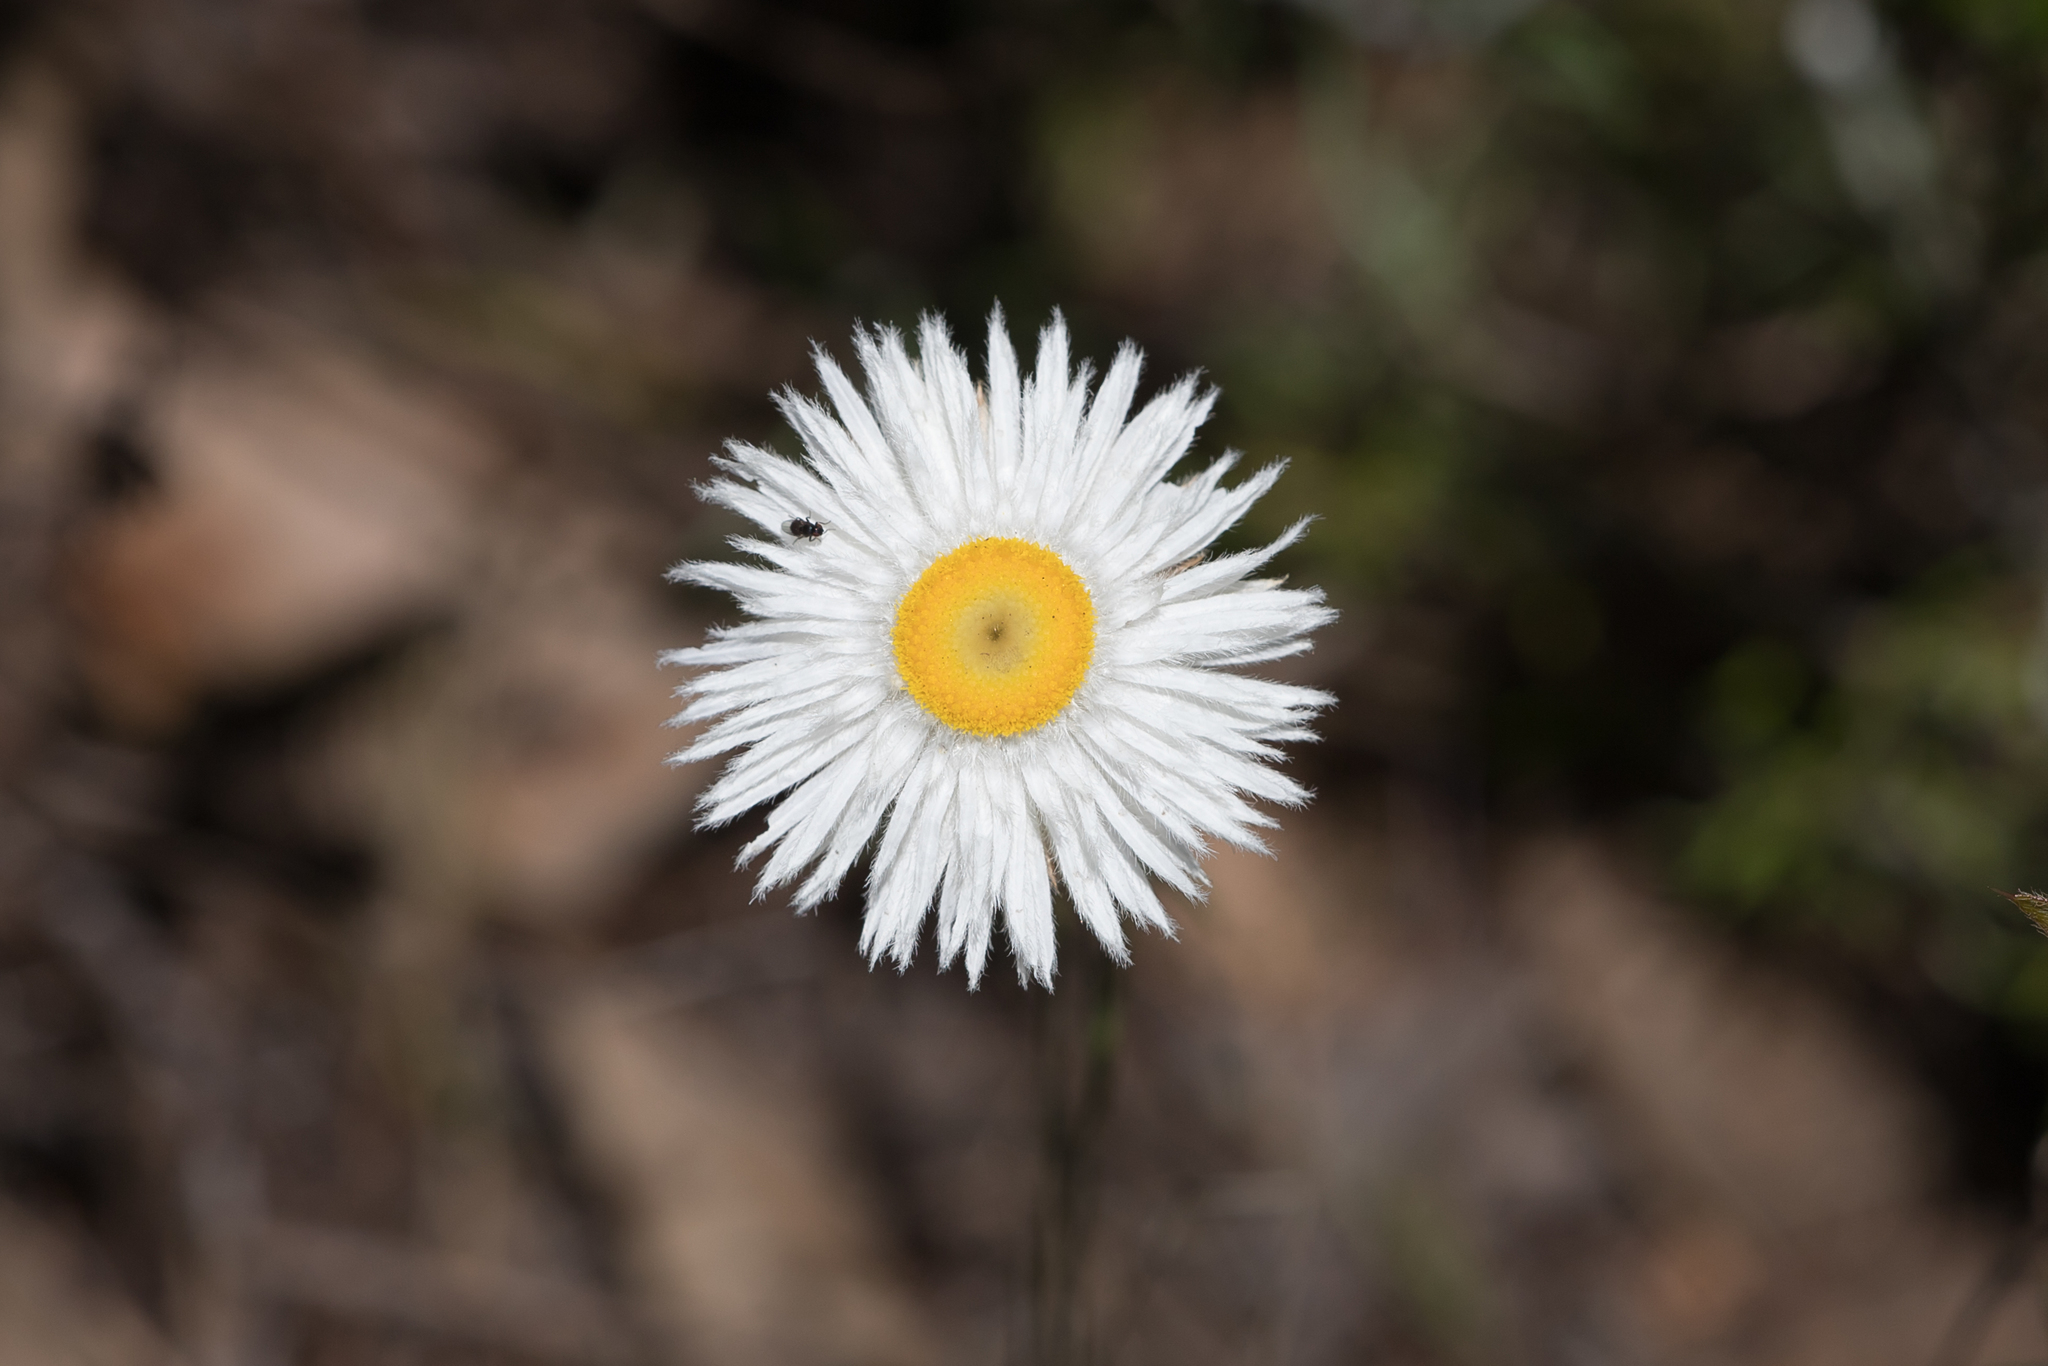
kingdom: Plantae
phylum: Tracheophyta
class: Magnoliopsida
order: Asterales
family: Asteraceae
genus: Chrysocephalum
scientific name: Chrysocephalum baxteri
